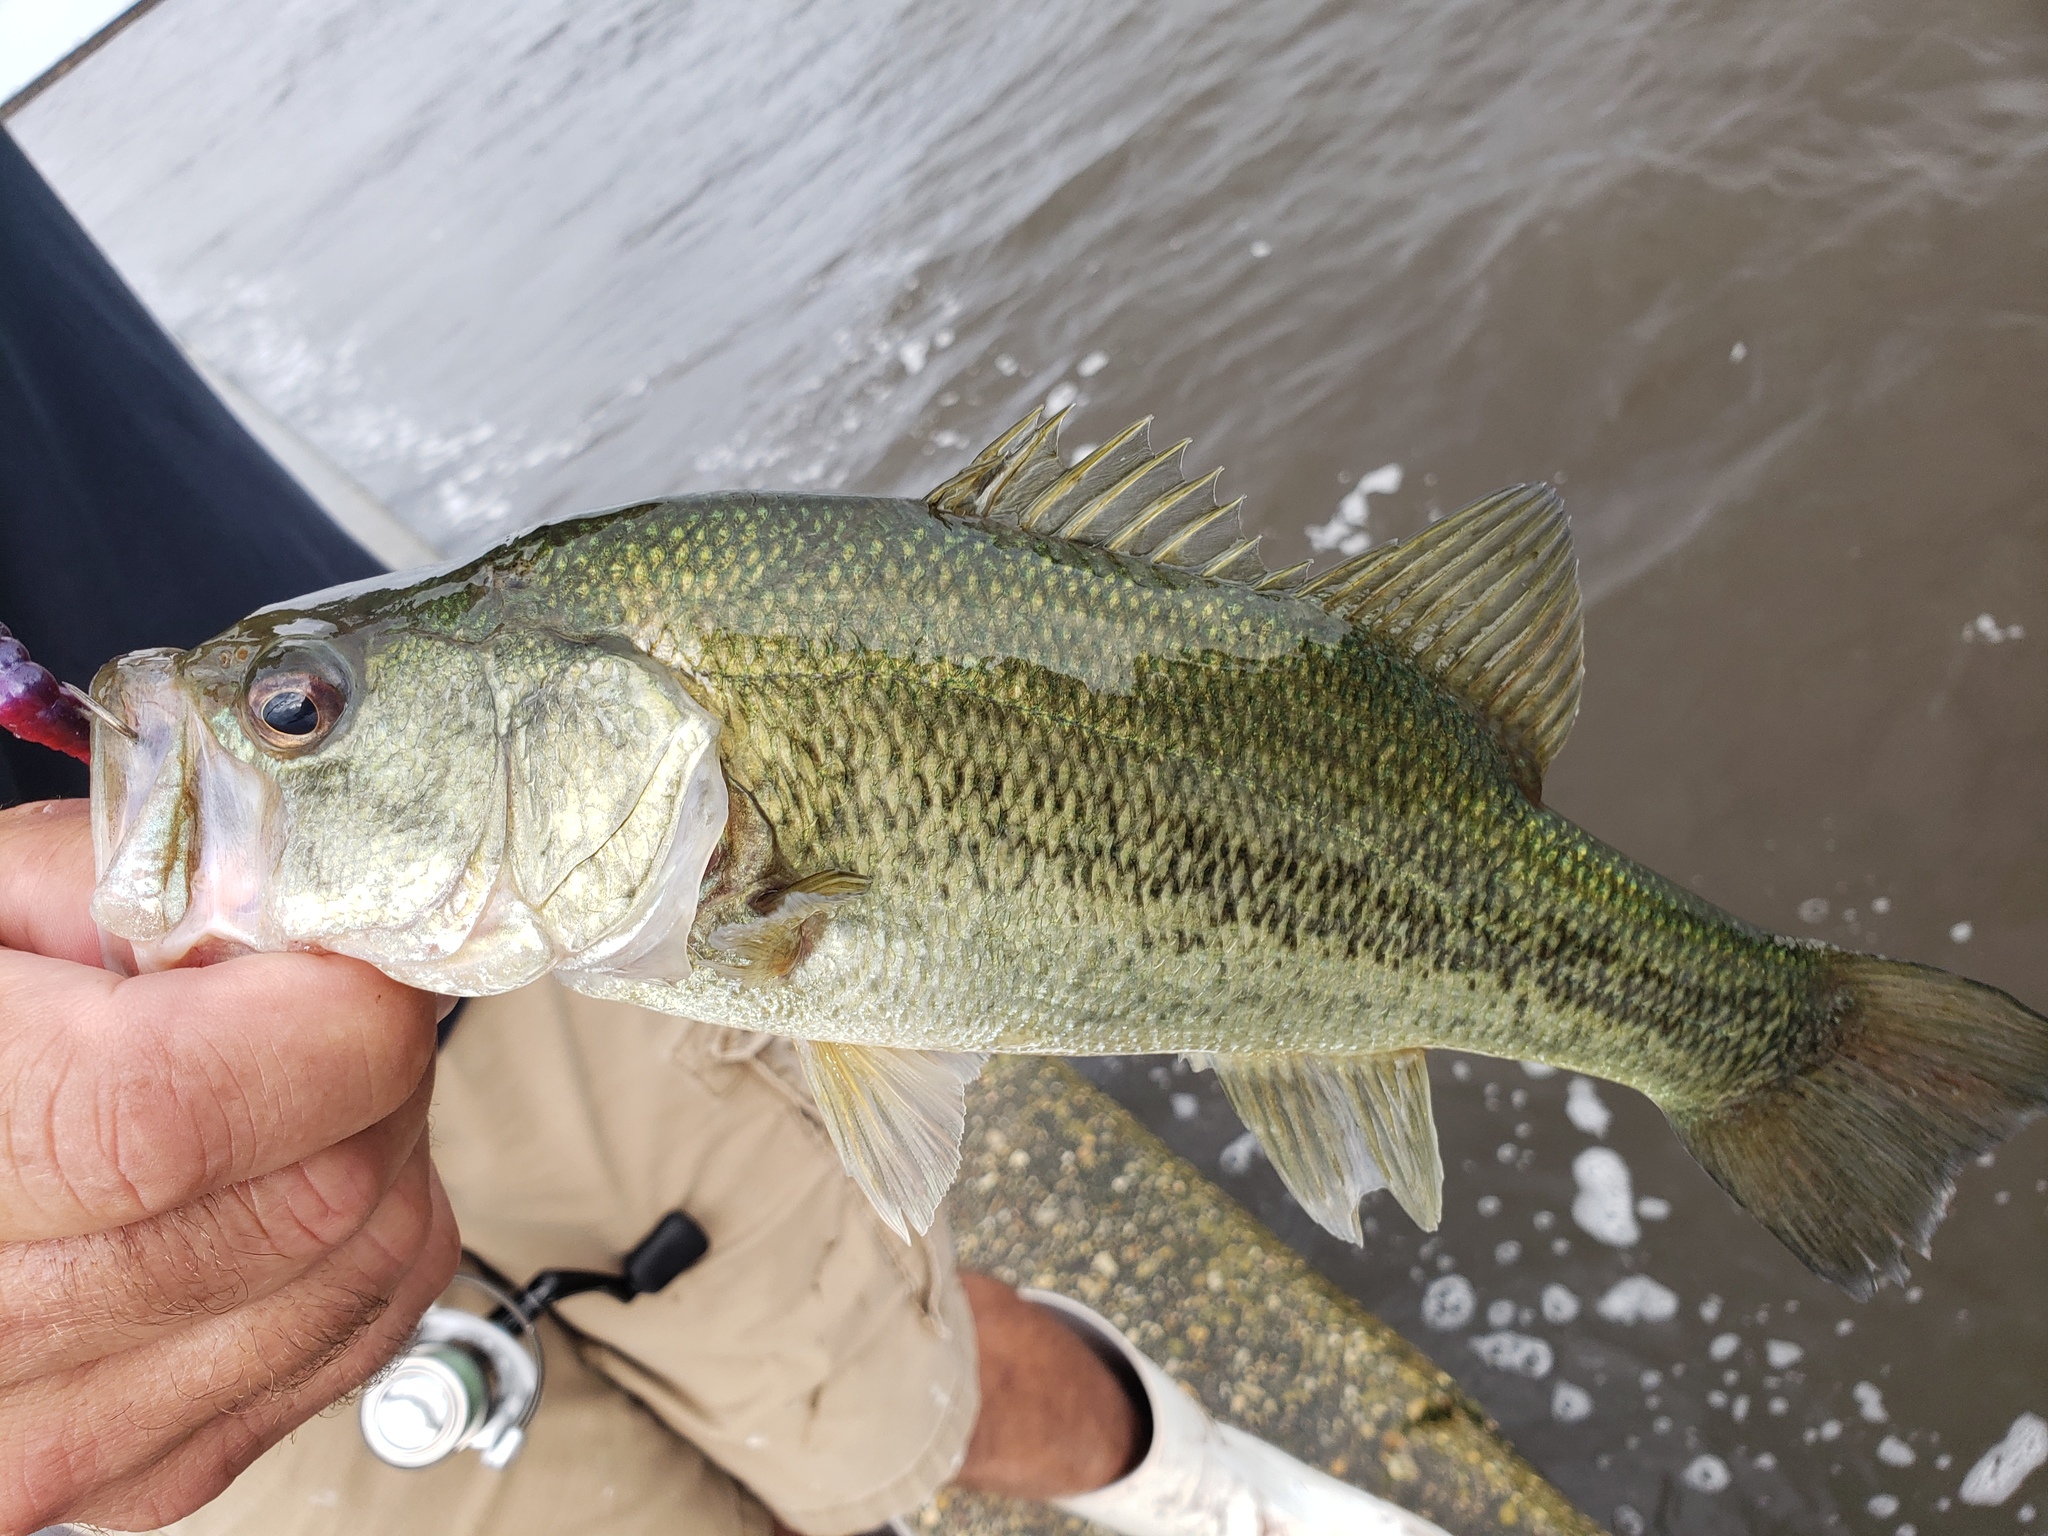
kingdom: Animalia
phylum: Chordata
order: Perciformes
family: Centrarchidae
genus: Micropterus
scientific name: Micropterus
